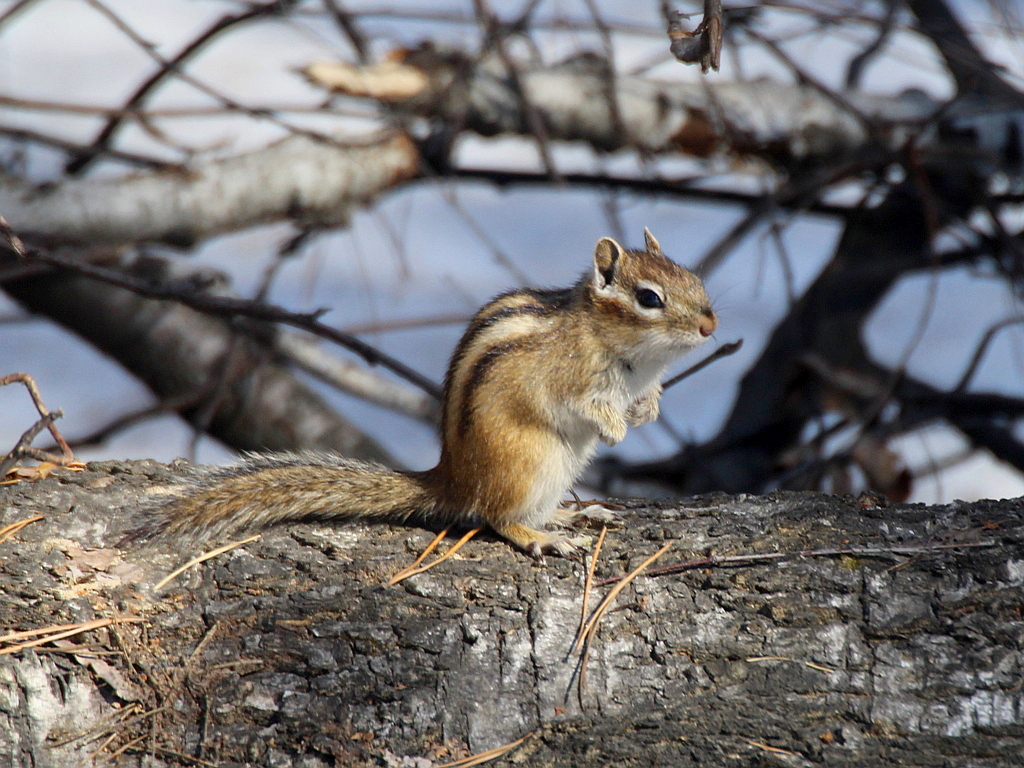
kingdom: Animalia
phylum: Chordata
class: Mammalia
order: Rodentia
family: Sciuridae
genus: Tamias
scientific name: Tamias sibiricus
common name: Siberian chipmunk
